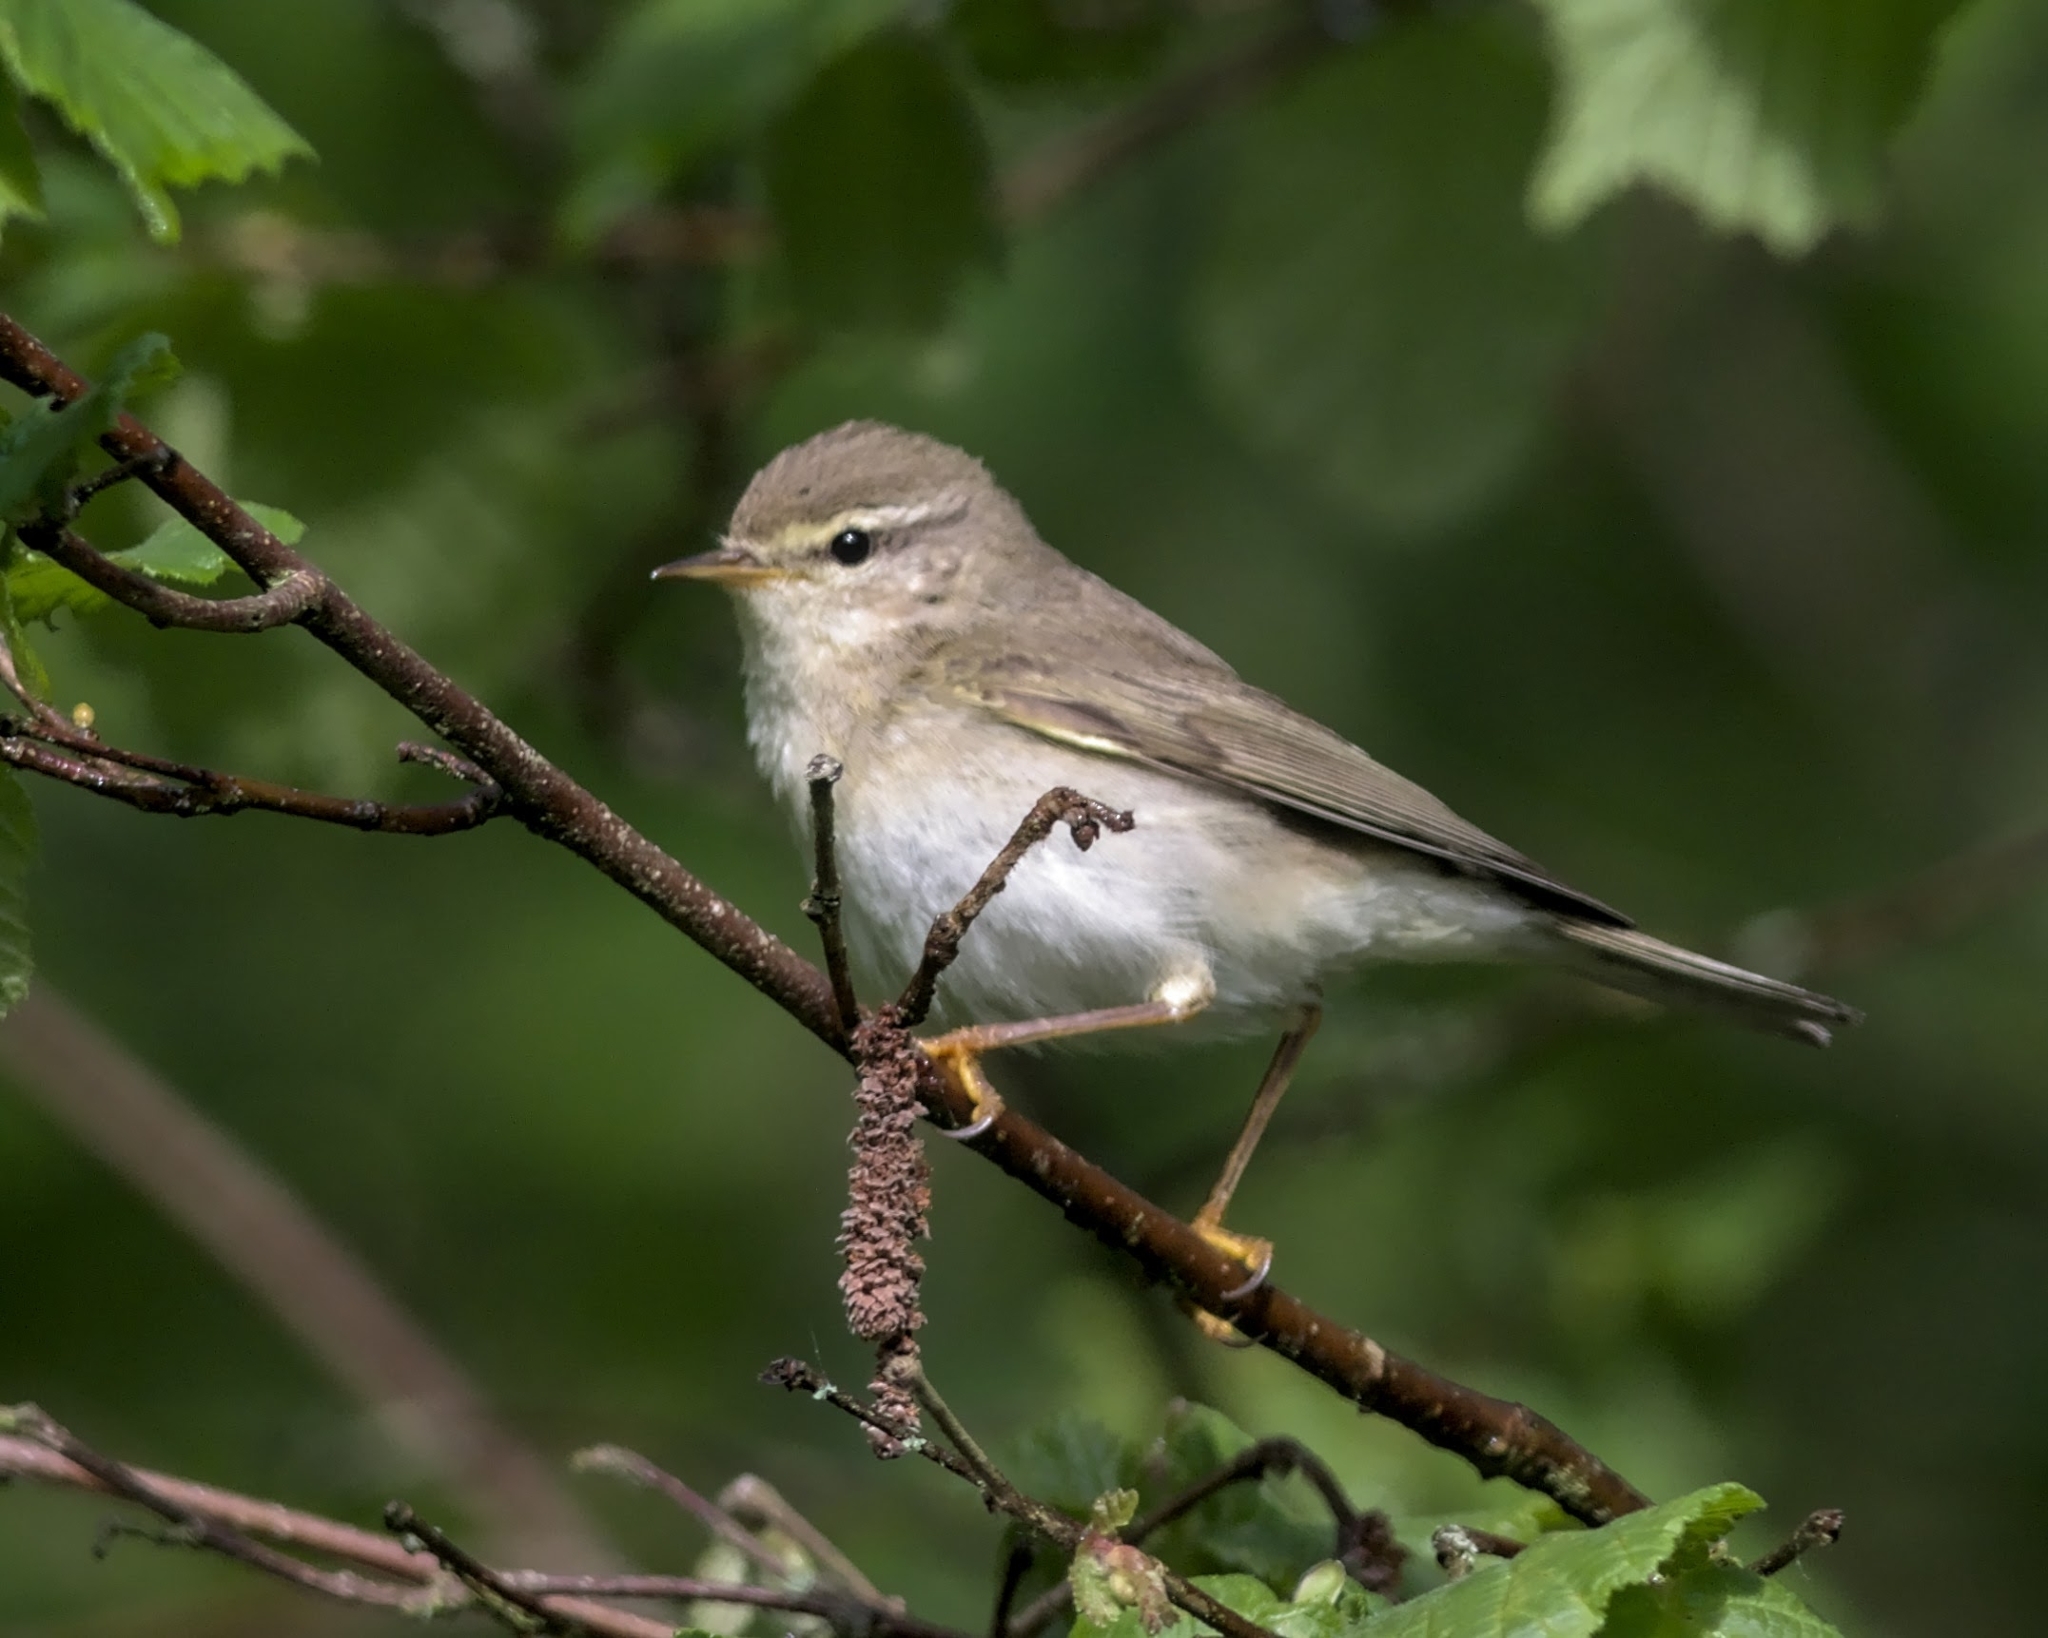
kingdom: Animalia
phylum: Chordata
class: Aves
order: Passeriformes
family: Phylloscopidae
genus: Phylloscopus
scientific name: Phylloscopus trochilus
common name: Willow warbler
